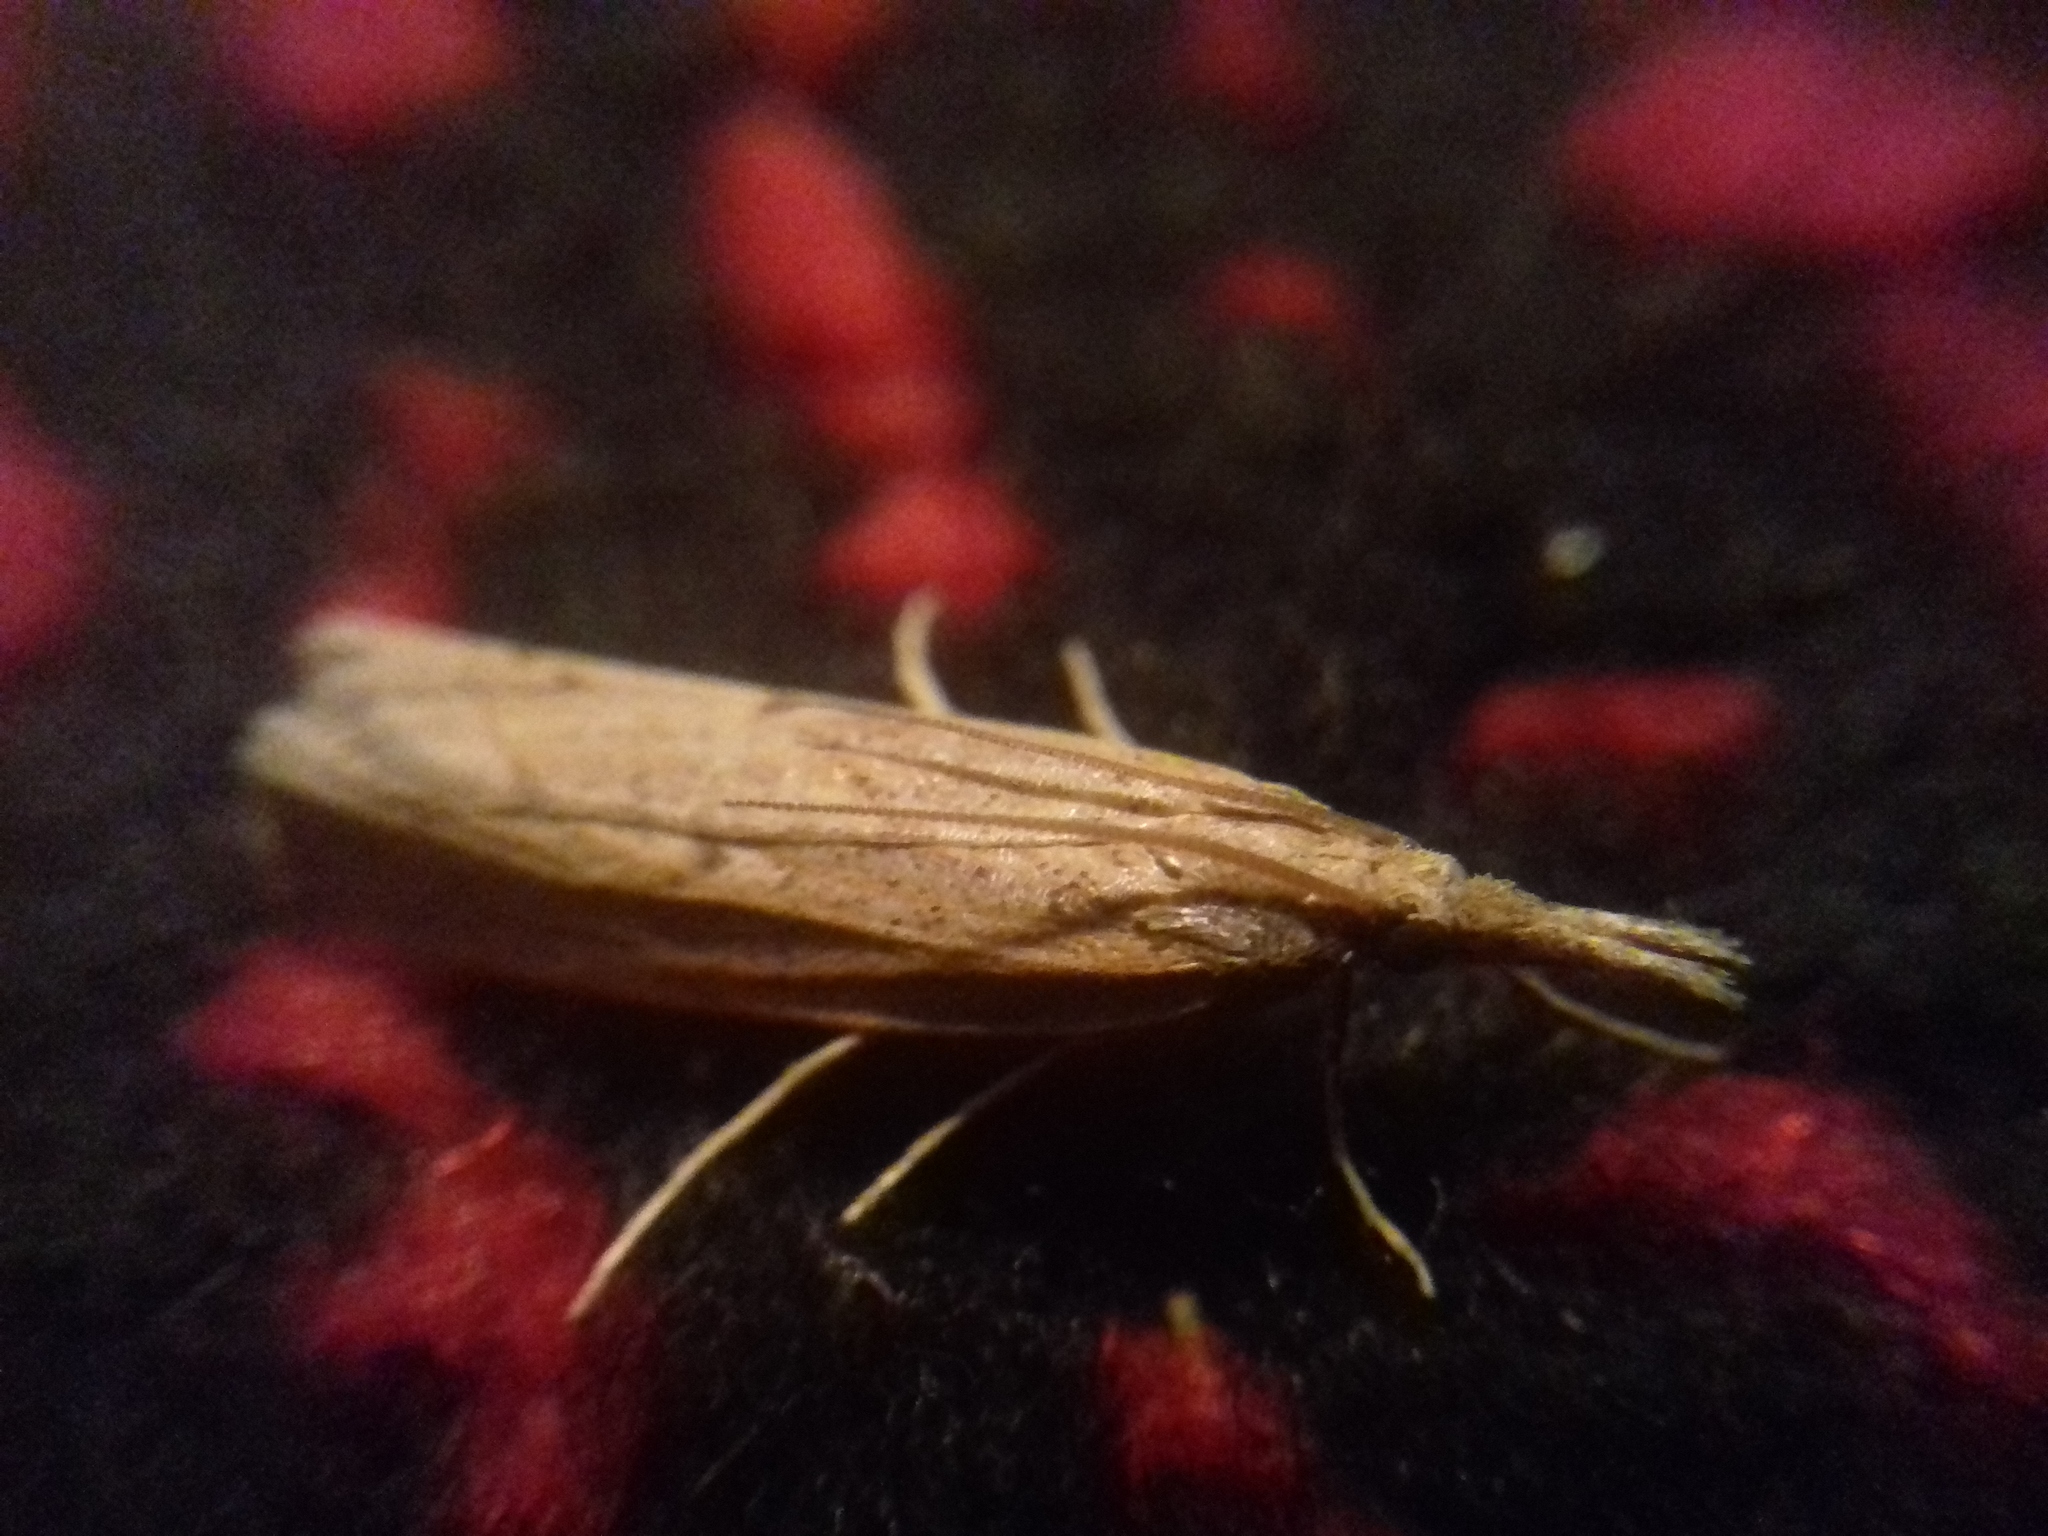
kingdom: Animalia
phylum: Arthropoda
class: Insecta
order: Lepidoptera
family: Crambidae
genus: Pediasia
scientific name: Pediasia contaminella
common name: Waste grass-veneer
